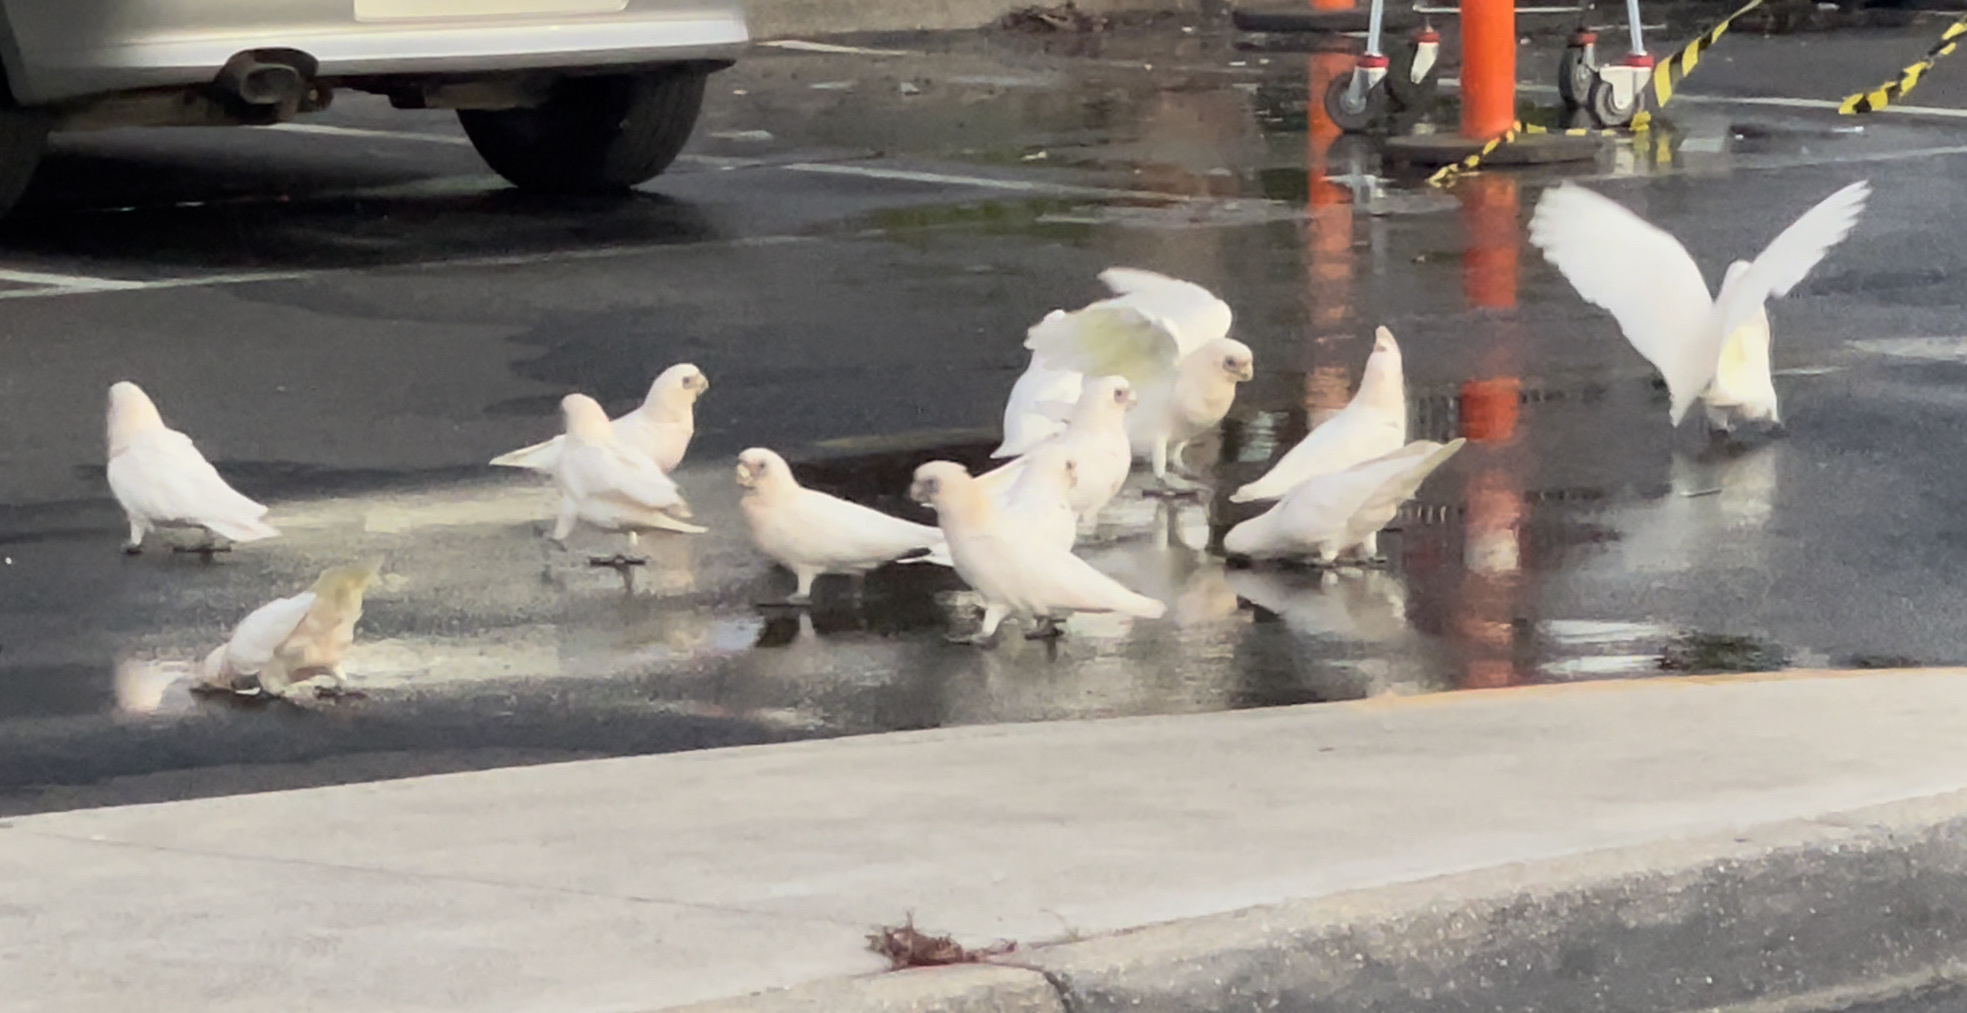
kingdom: Animalia
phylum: Chordata
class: Aves
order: Psittaciformes
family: Psittacidae
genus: Cacatua
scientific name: Cacatua sanguinea
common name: Little corella
